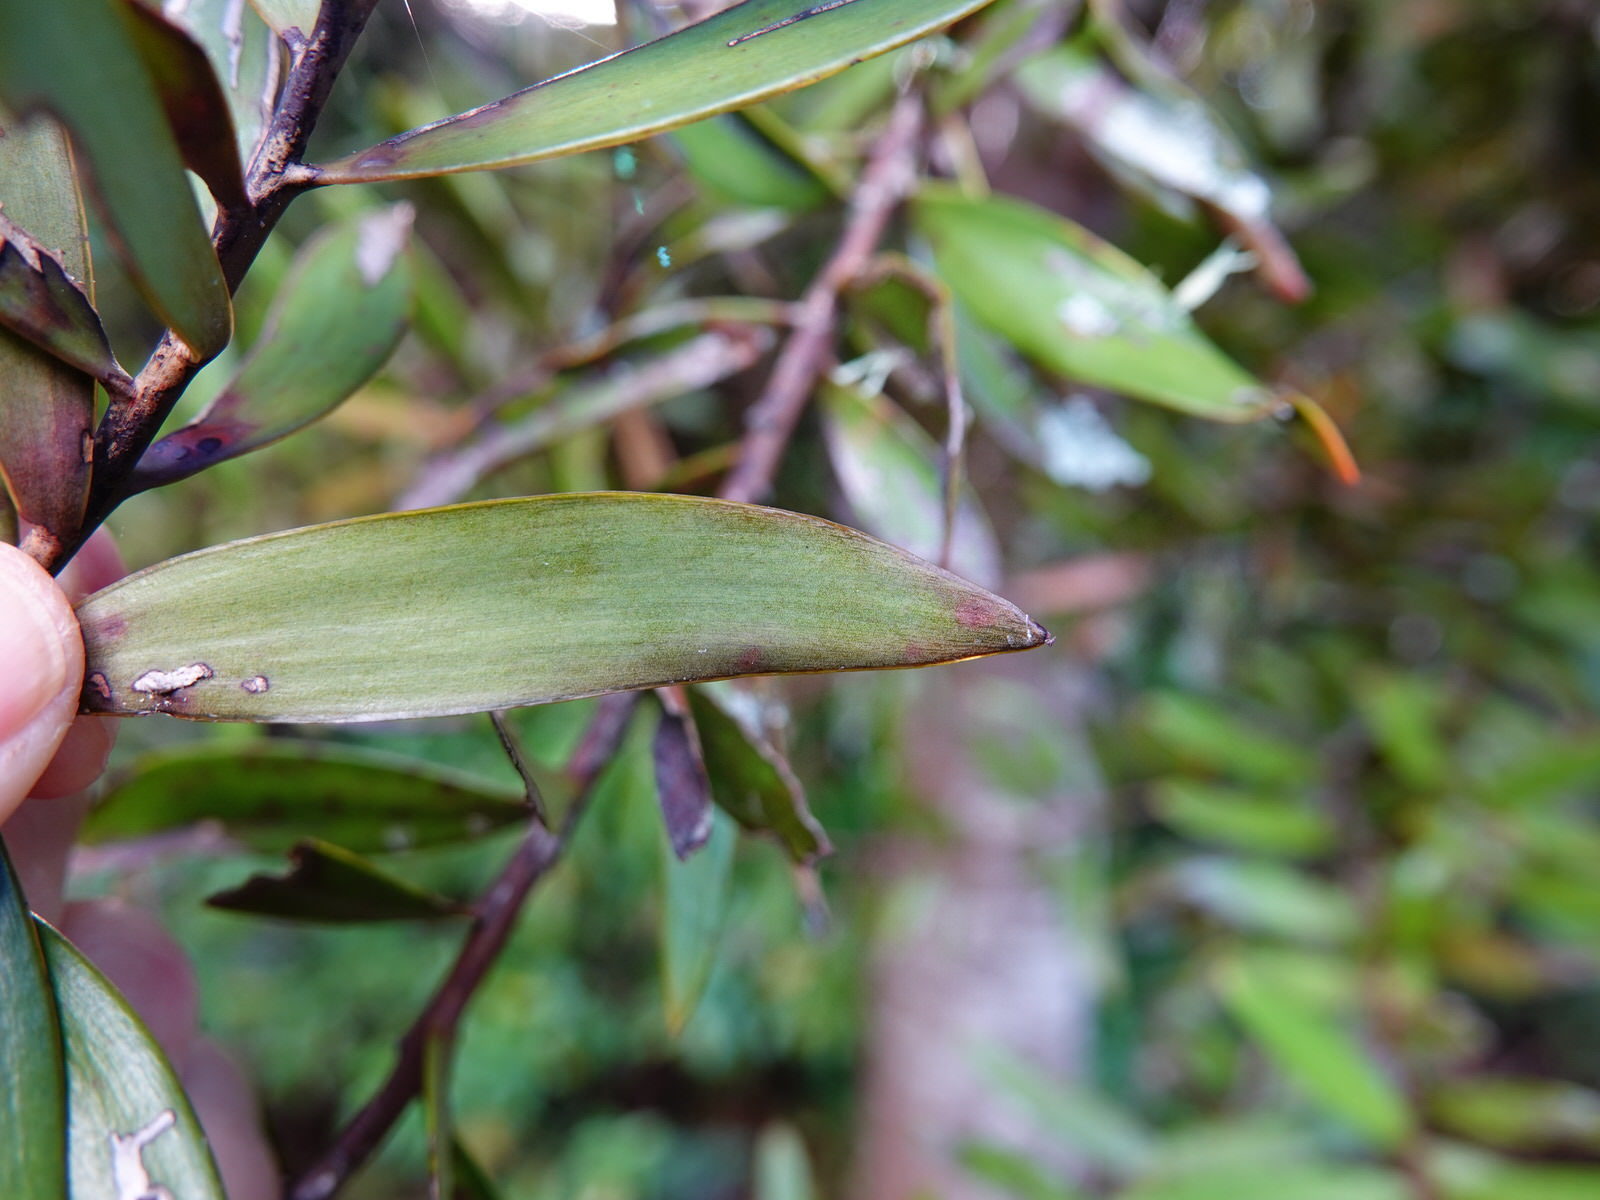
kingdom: Animalia
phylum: Arthropoda
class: Insecta
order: Lepidoptera
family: Gracillariidae
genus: Acrocercops
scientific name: Acrocercops leucotoma
